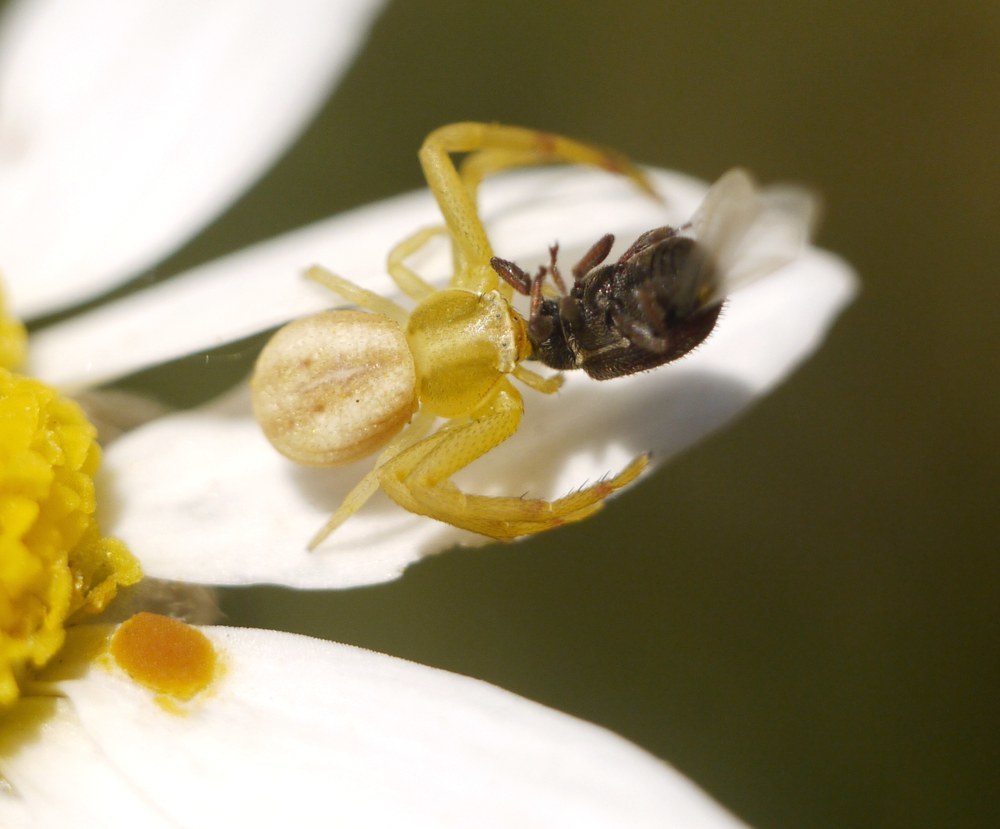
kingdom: Animalia
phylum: Arthropoda
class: Arachnida
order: Araneae
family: Thomisidae
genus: Runcinia
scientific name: Runcinia grammica
